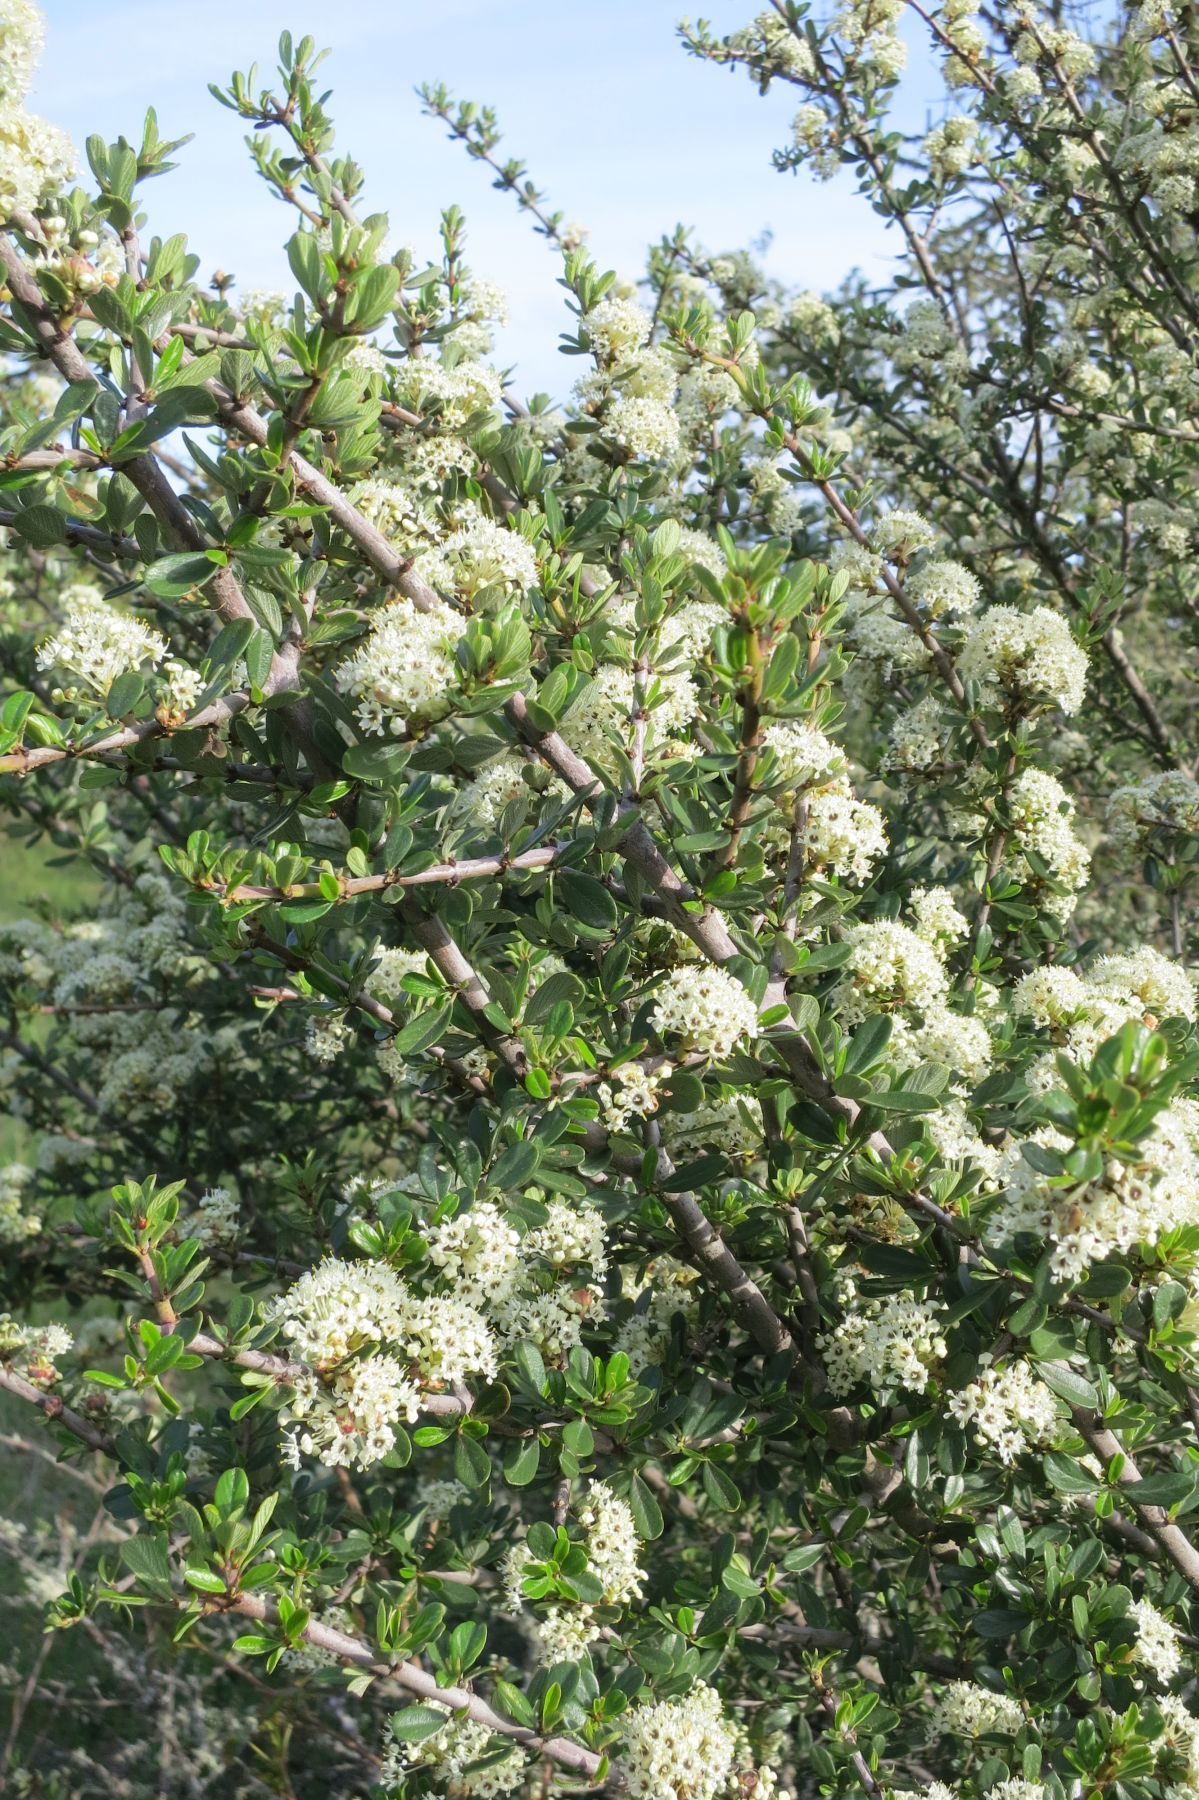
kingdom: Plantae
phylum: Tracheophyta
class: Magnoliopsida
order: Rosales
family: Rhamnaceae
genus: Ceanothus
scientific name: Ceanothus cuneatus
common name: Cuneate ceanothus
